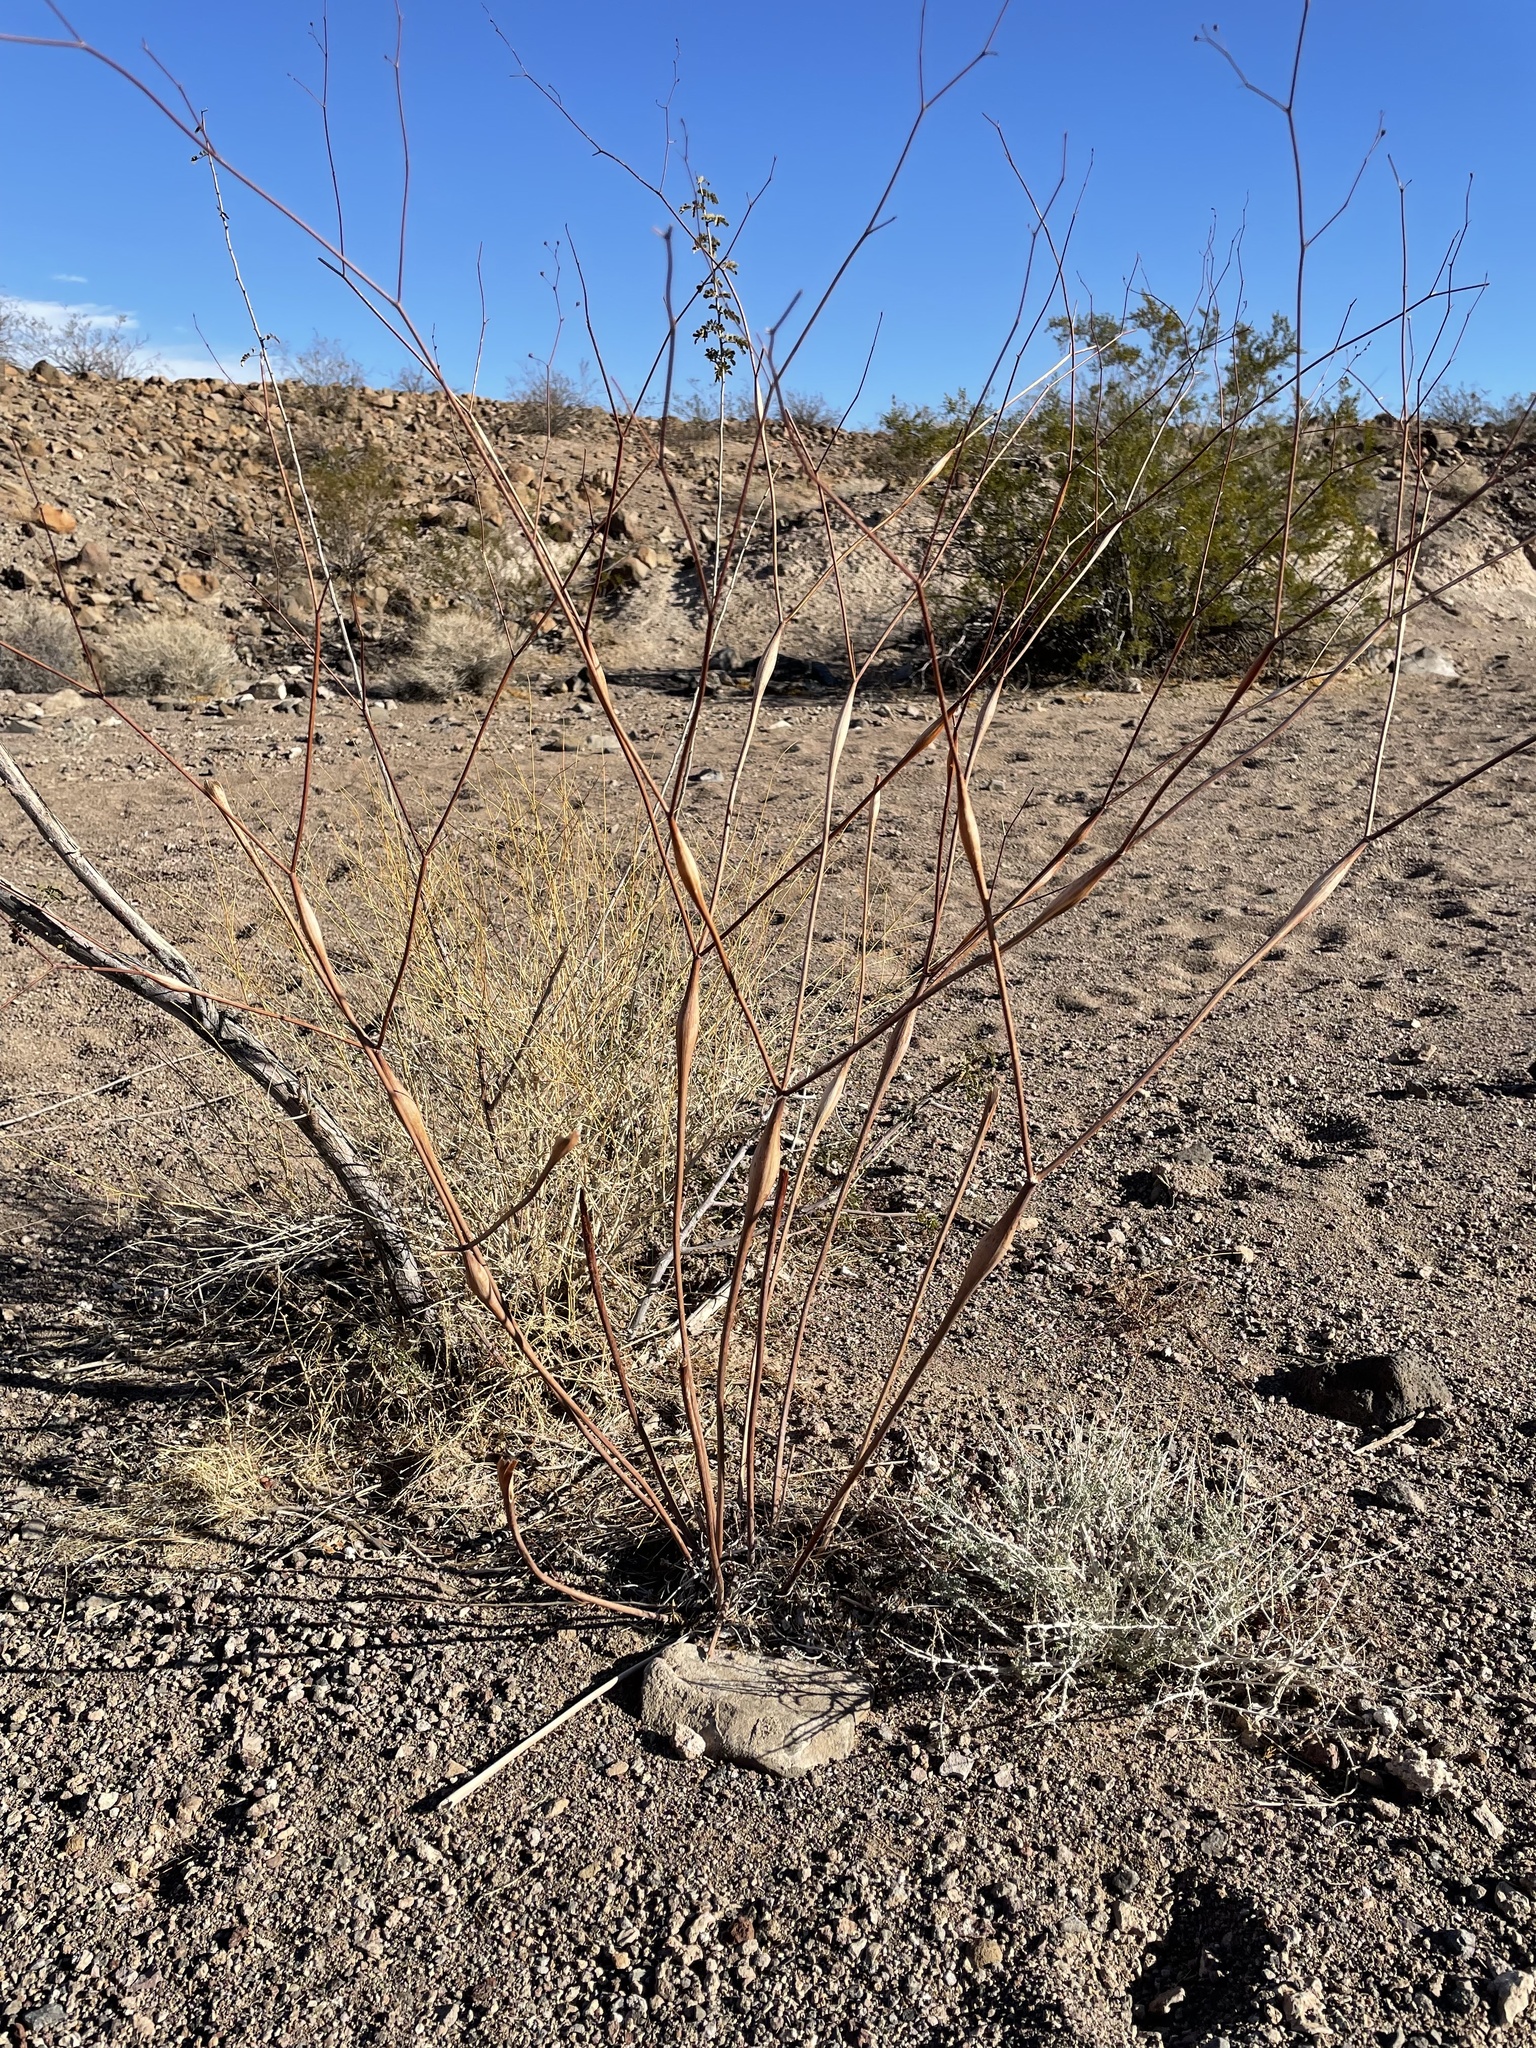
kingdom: Plantae
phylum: Tracheophyta
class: Magnoliopsida
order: Caryophyllales
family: Polygonaceae
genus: Eriogonum
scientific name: Eriogonum inflatum
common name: Desert trumpet
